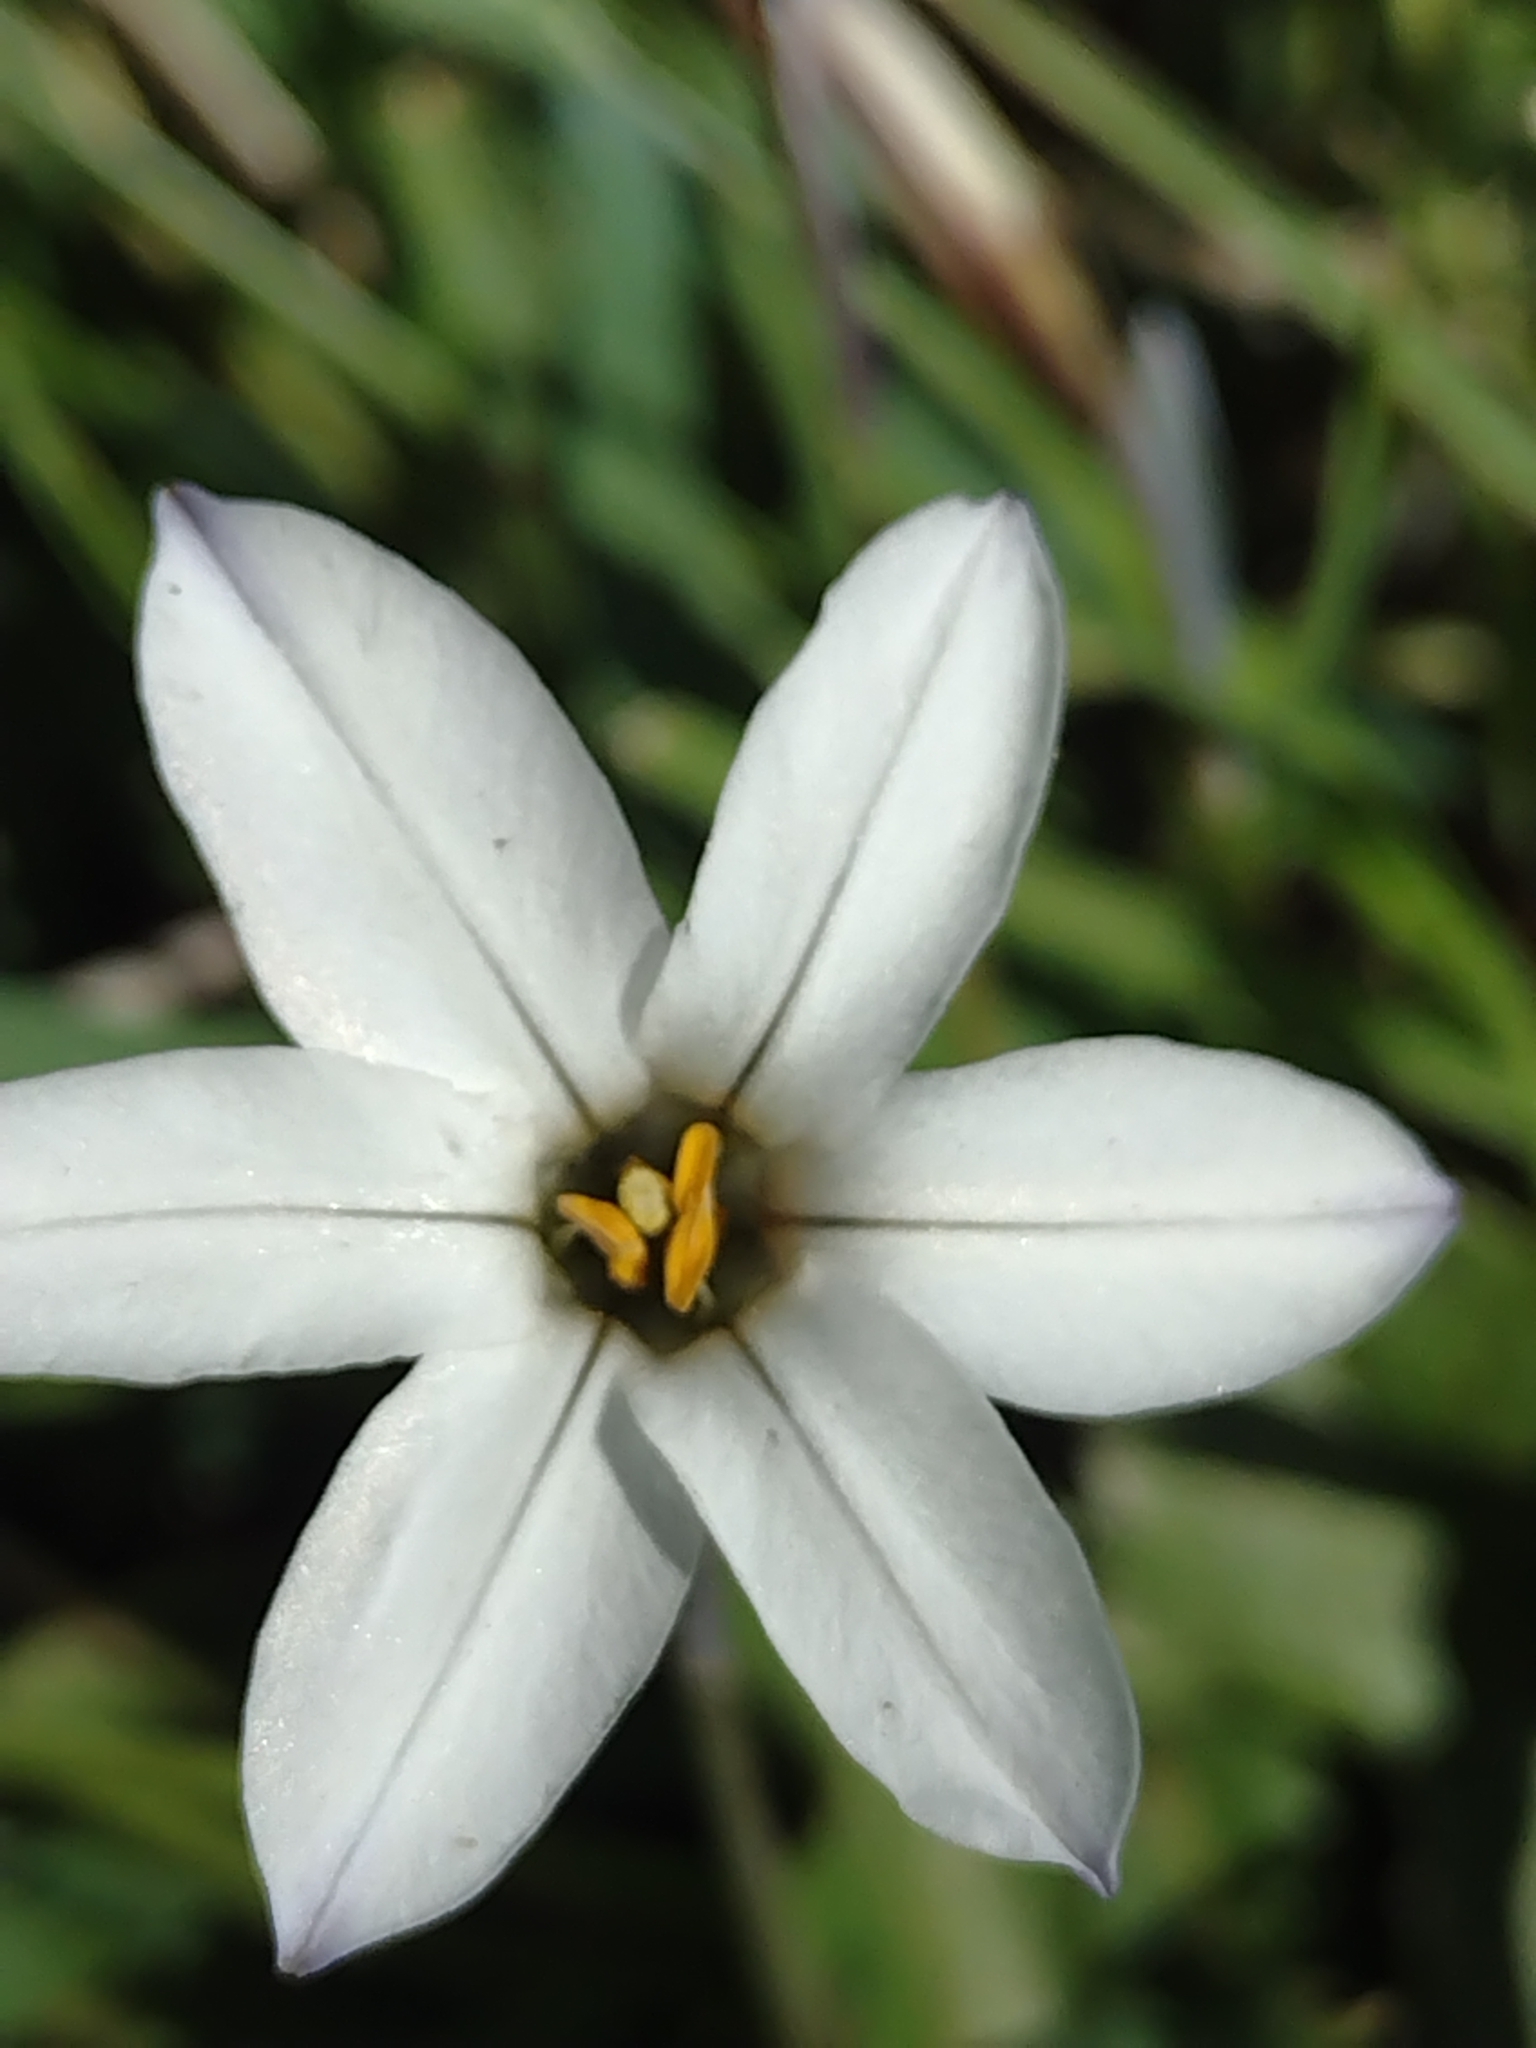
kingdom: Plantae
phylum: Tracheophyta
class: Liliopsida
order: Asparagales
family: Amaryllidaceae
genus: Ipheion
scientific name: Ipheion uniflorum
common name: Spring starflower
